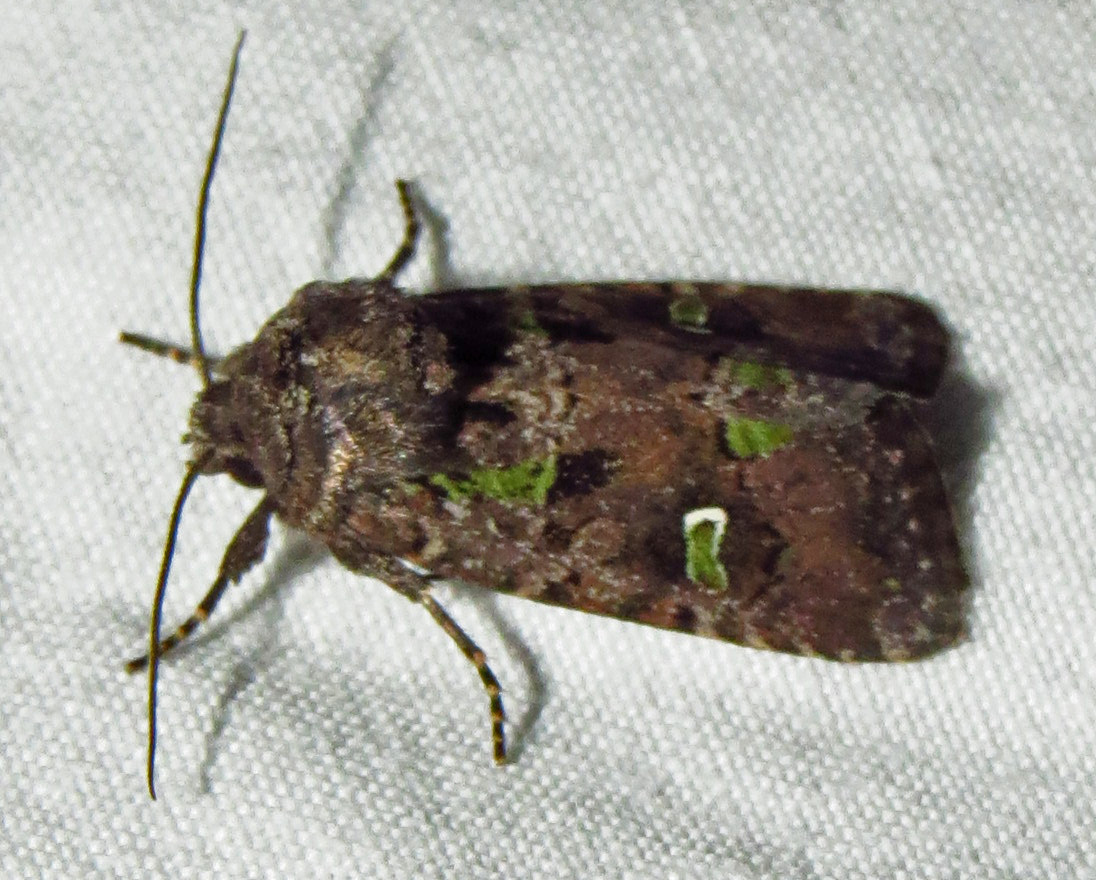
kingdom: Animalia
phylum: Arthropoda
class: Insecta
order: Lepidoptera
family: Noctuidae
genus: Lacinipolia
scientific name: Lacinipolia renigera
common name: Kidney-spotted minor
